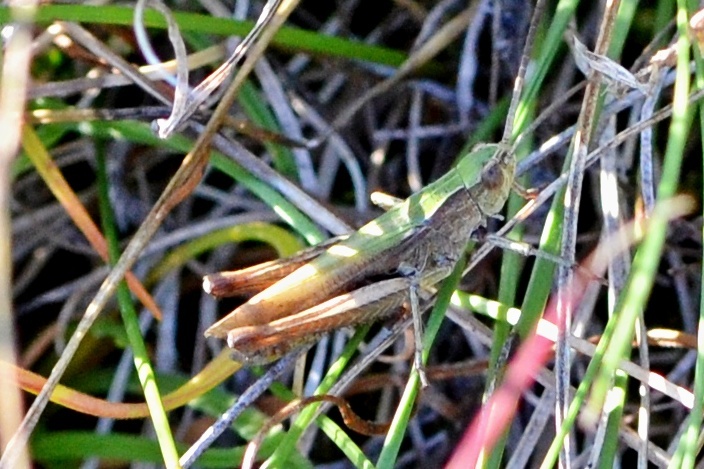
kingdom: Animalia
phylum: Arthropoda
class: Insecta
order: Orthoptera
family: Acrididae
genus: Chorthippus
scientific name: Chorthippus dorsatus
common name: Steppe grasshopper
